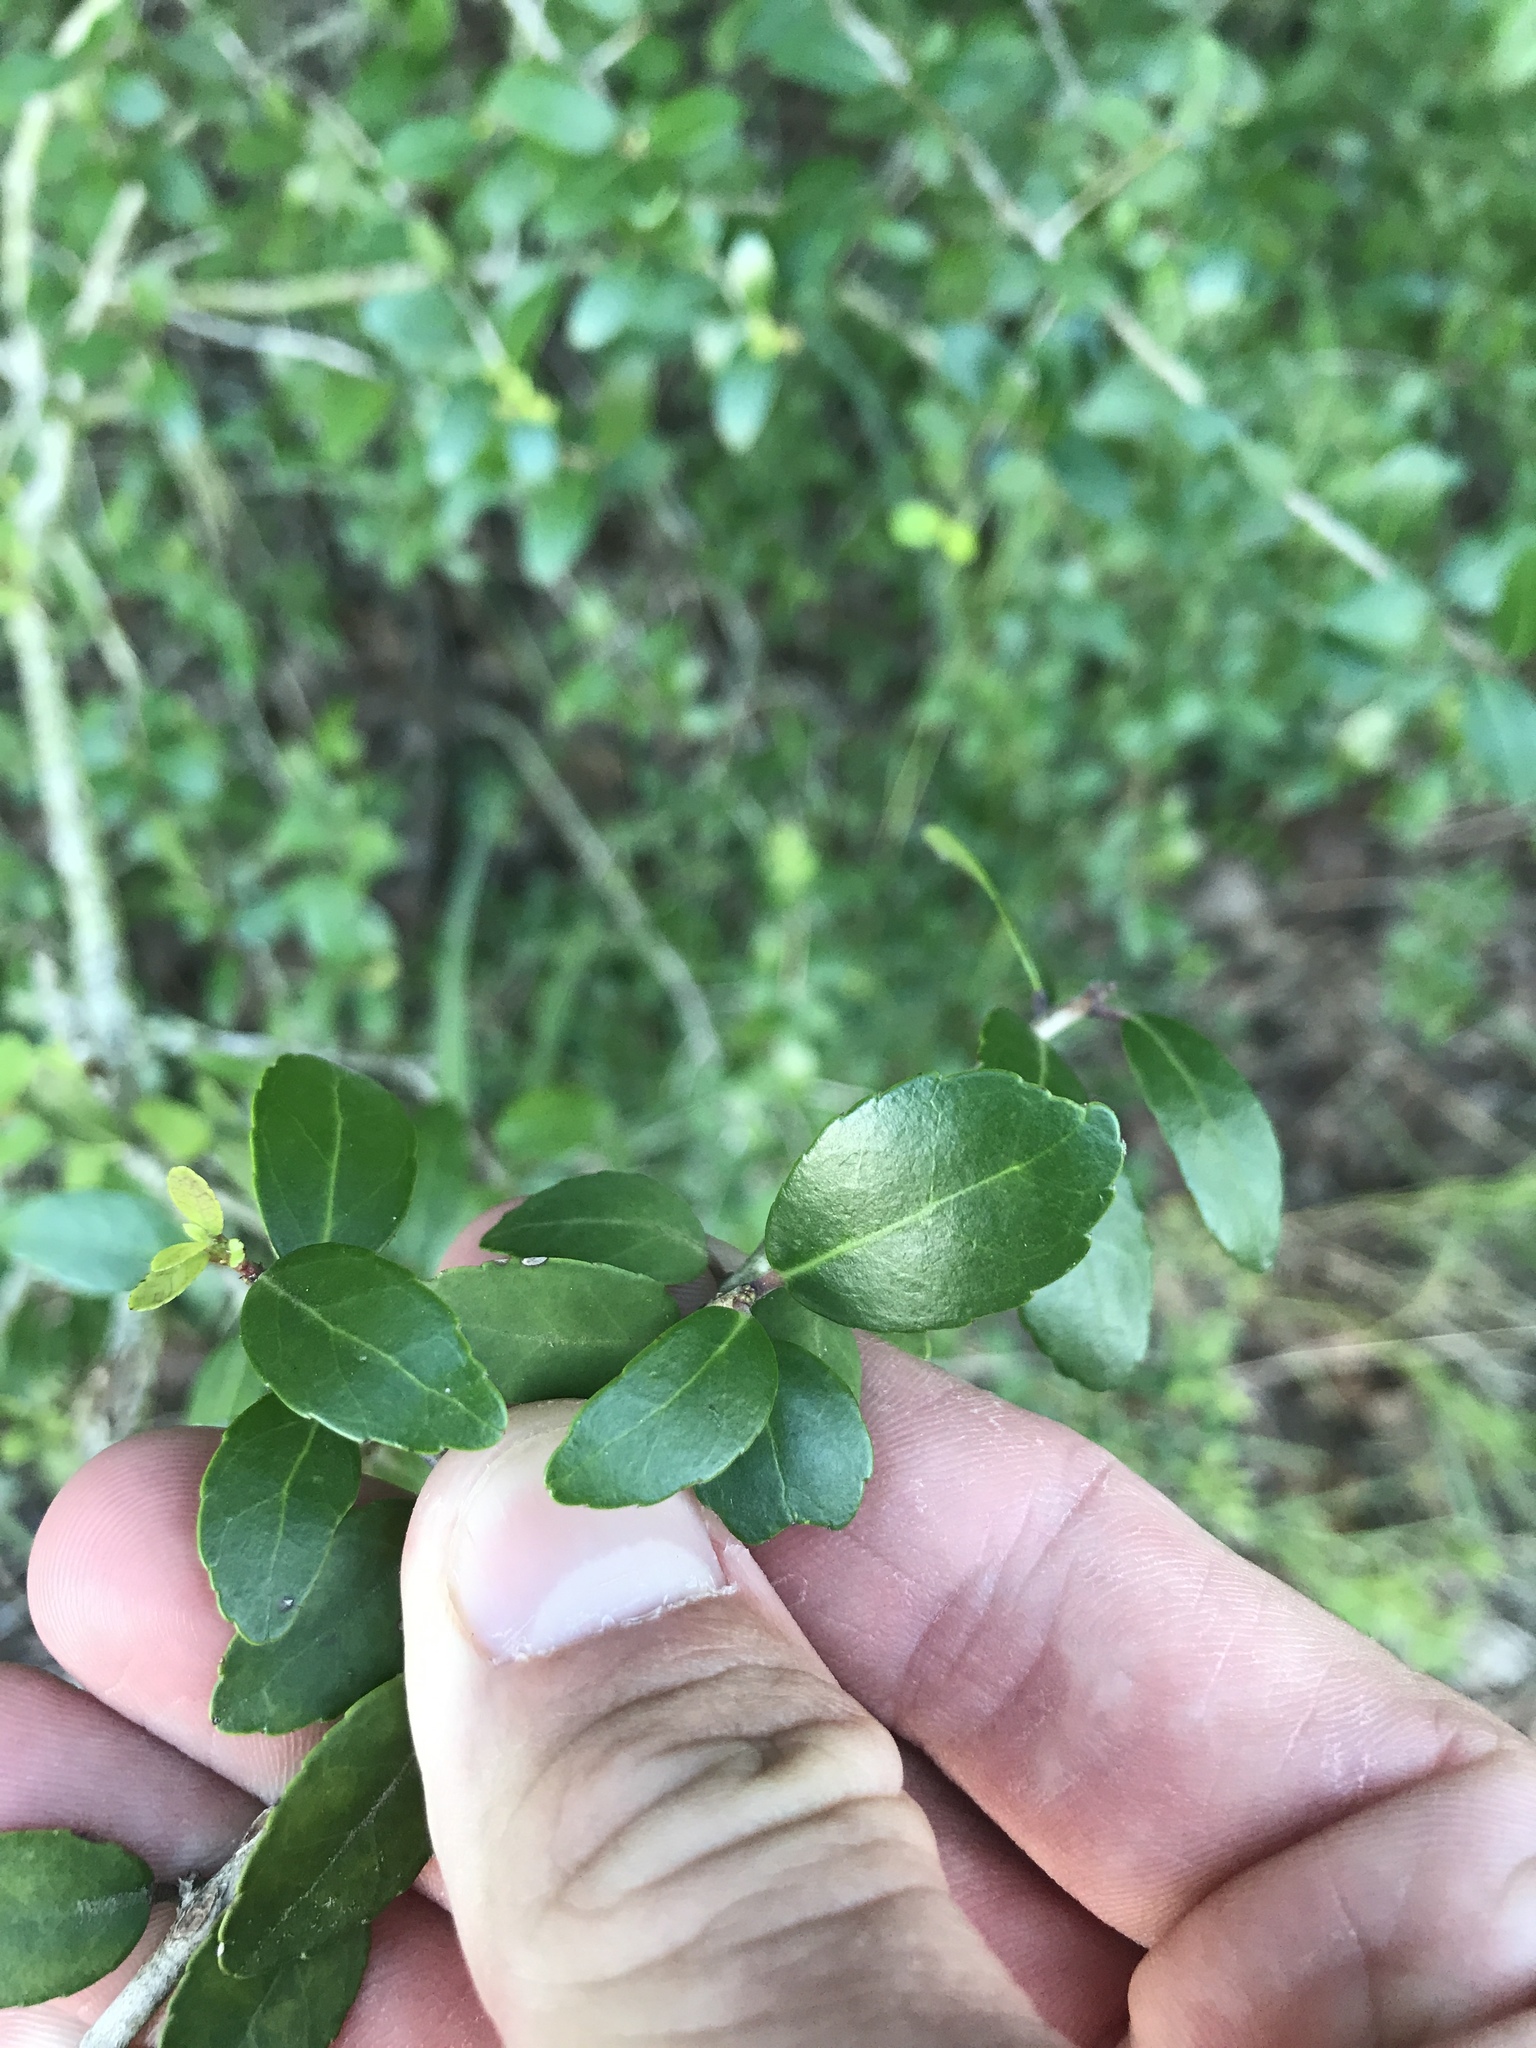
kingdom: Plantae
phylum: Tracheophyta
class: Magnoliopsida
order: Aquifoliales
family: Aquifoliaceae
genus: Ilex
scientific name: Ilex vomitoria
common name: Yaupon holly
